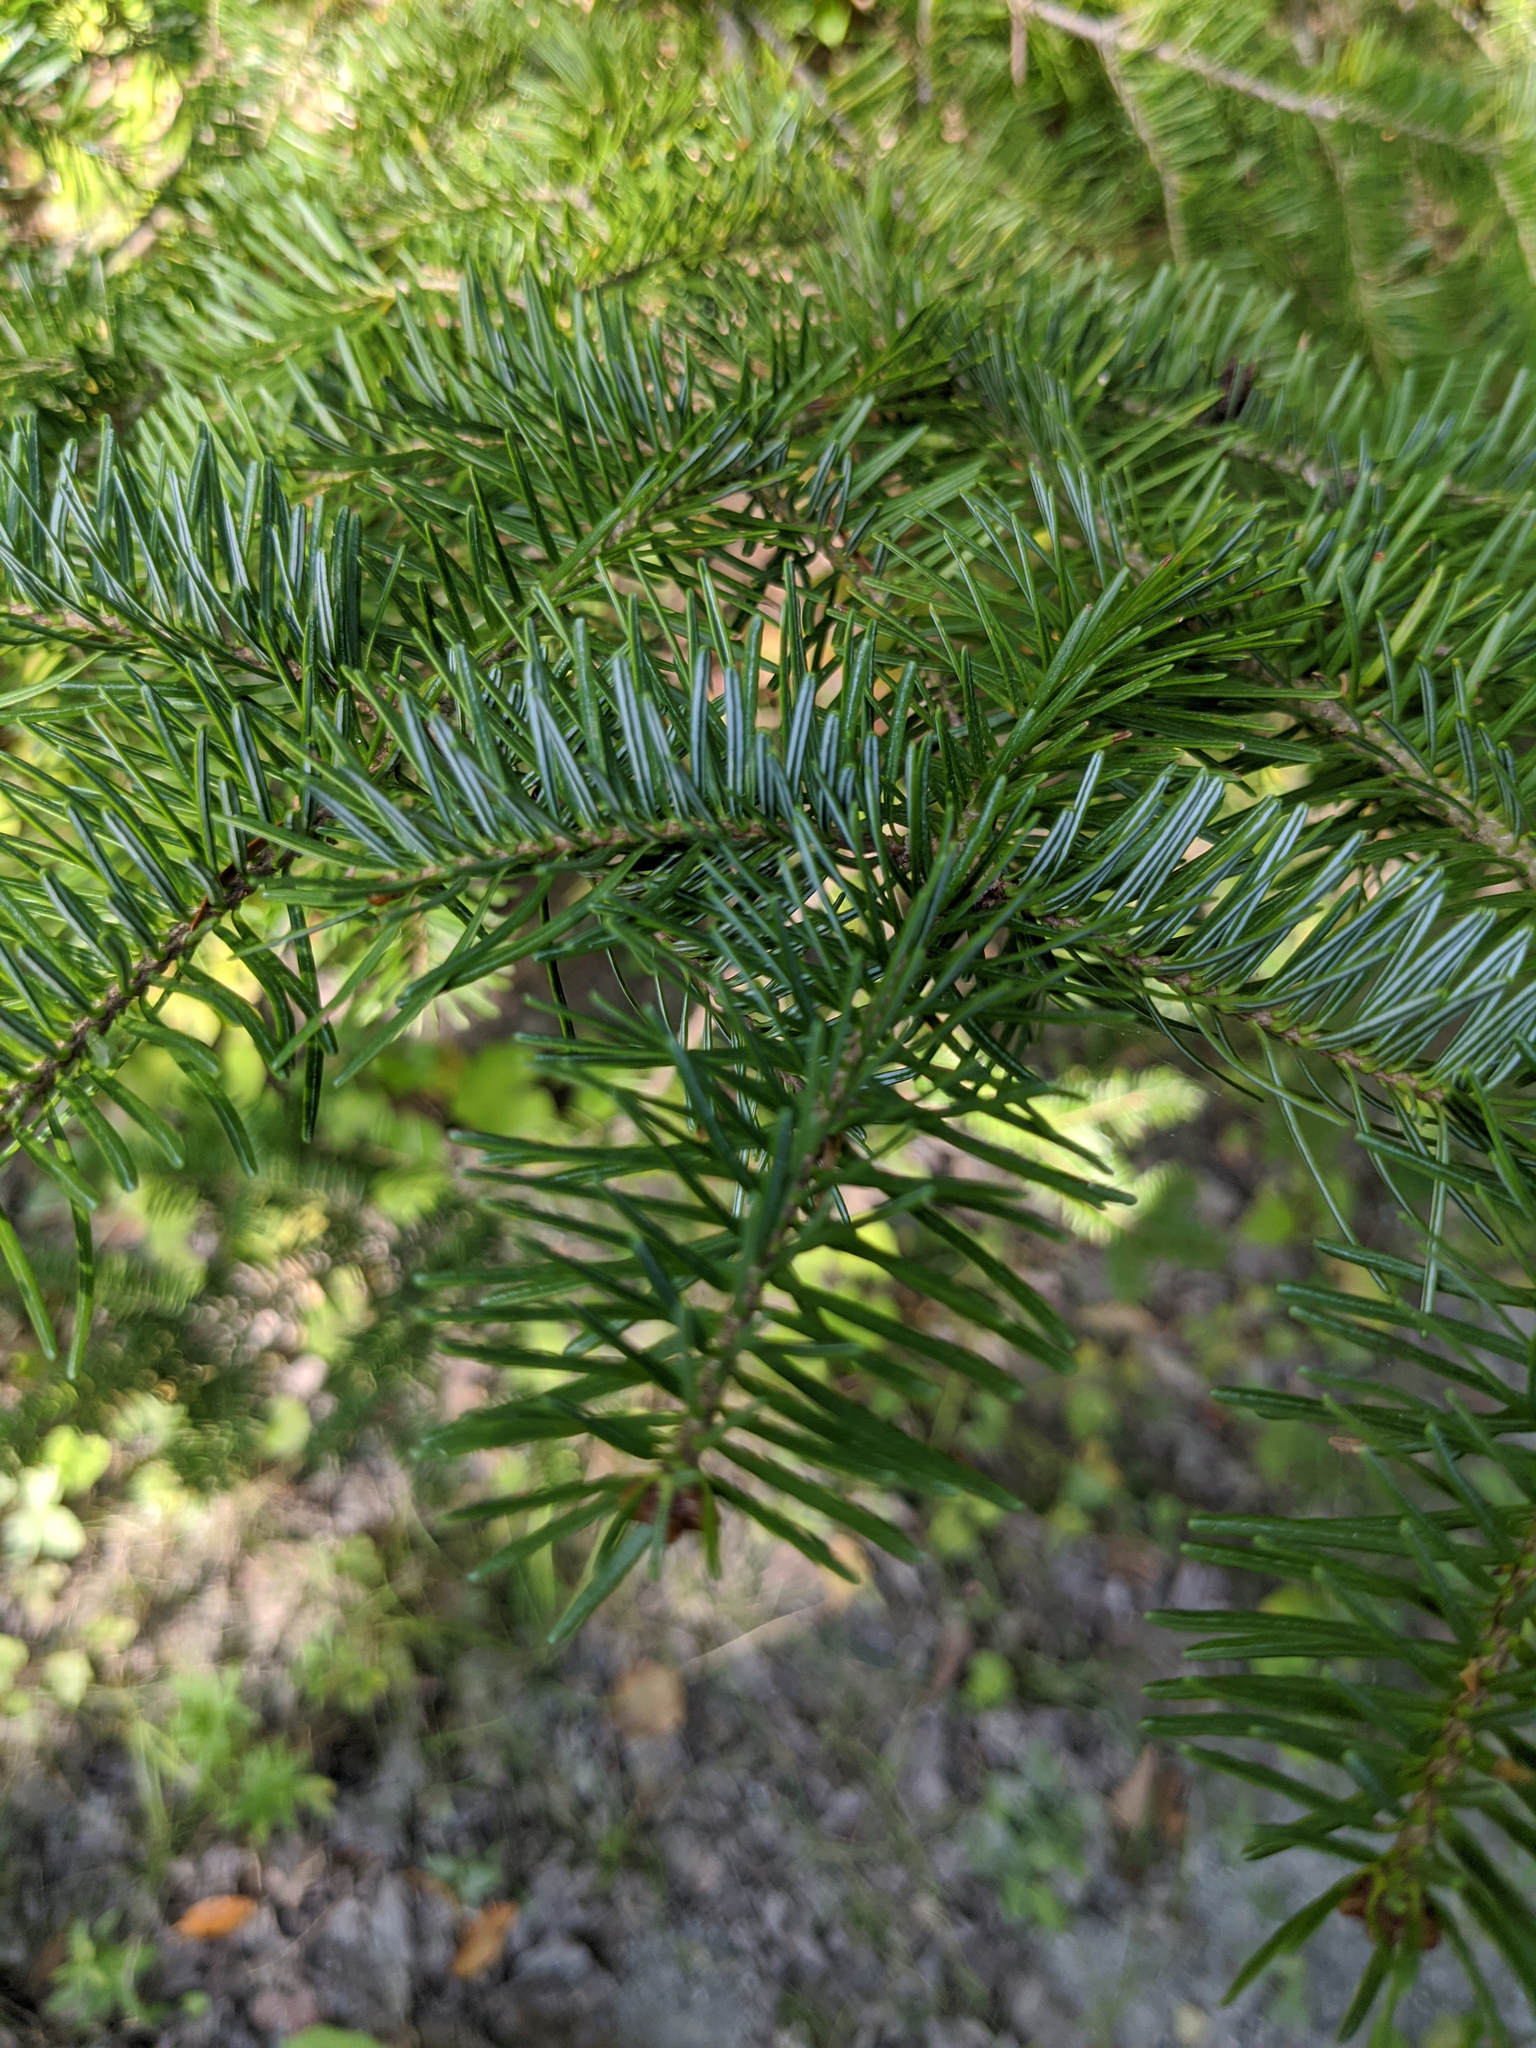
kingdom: Plantae
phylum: Tracheophyta
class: Pinopsida
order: Pinales
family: Pinaceae
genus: Abies
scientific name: Abies balsamea
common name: Balsam fir
